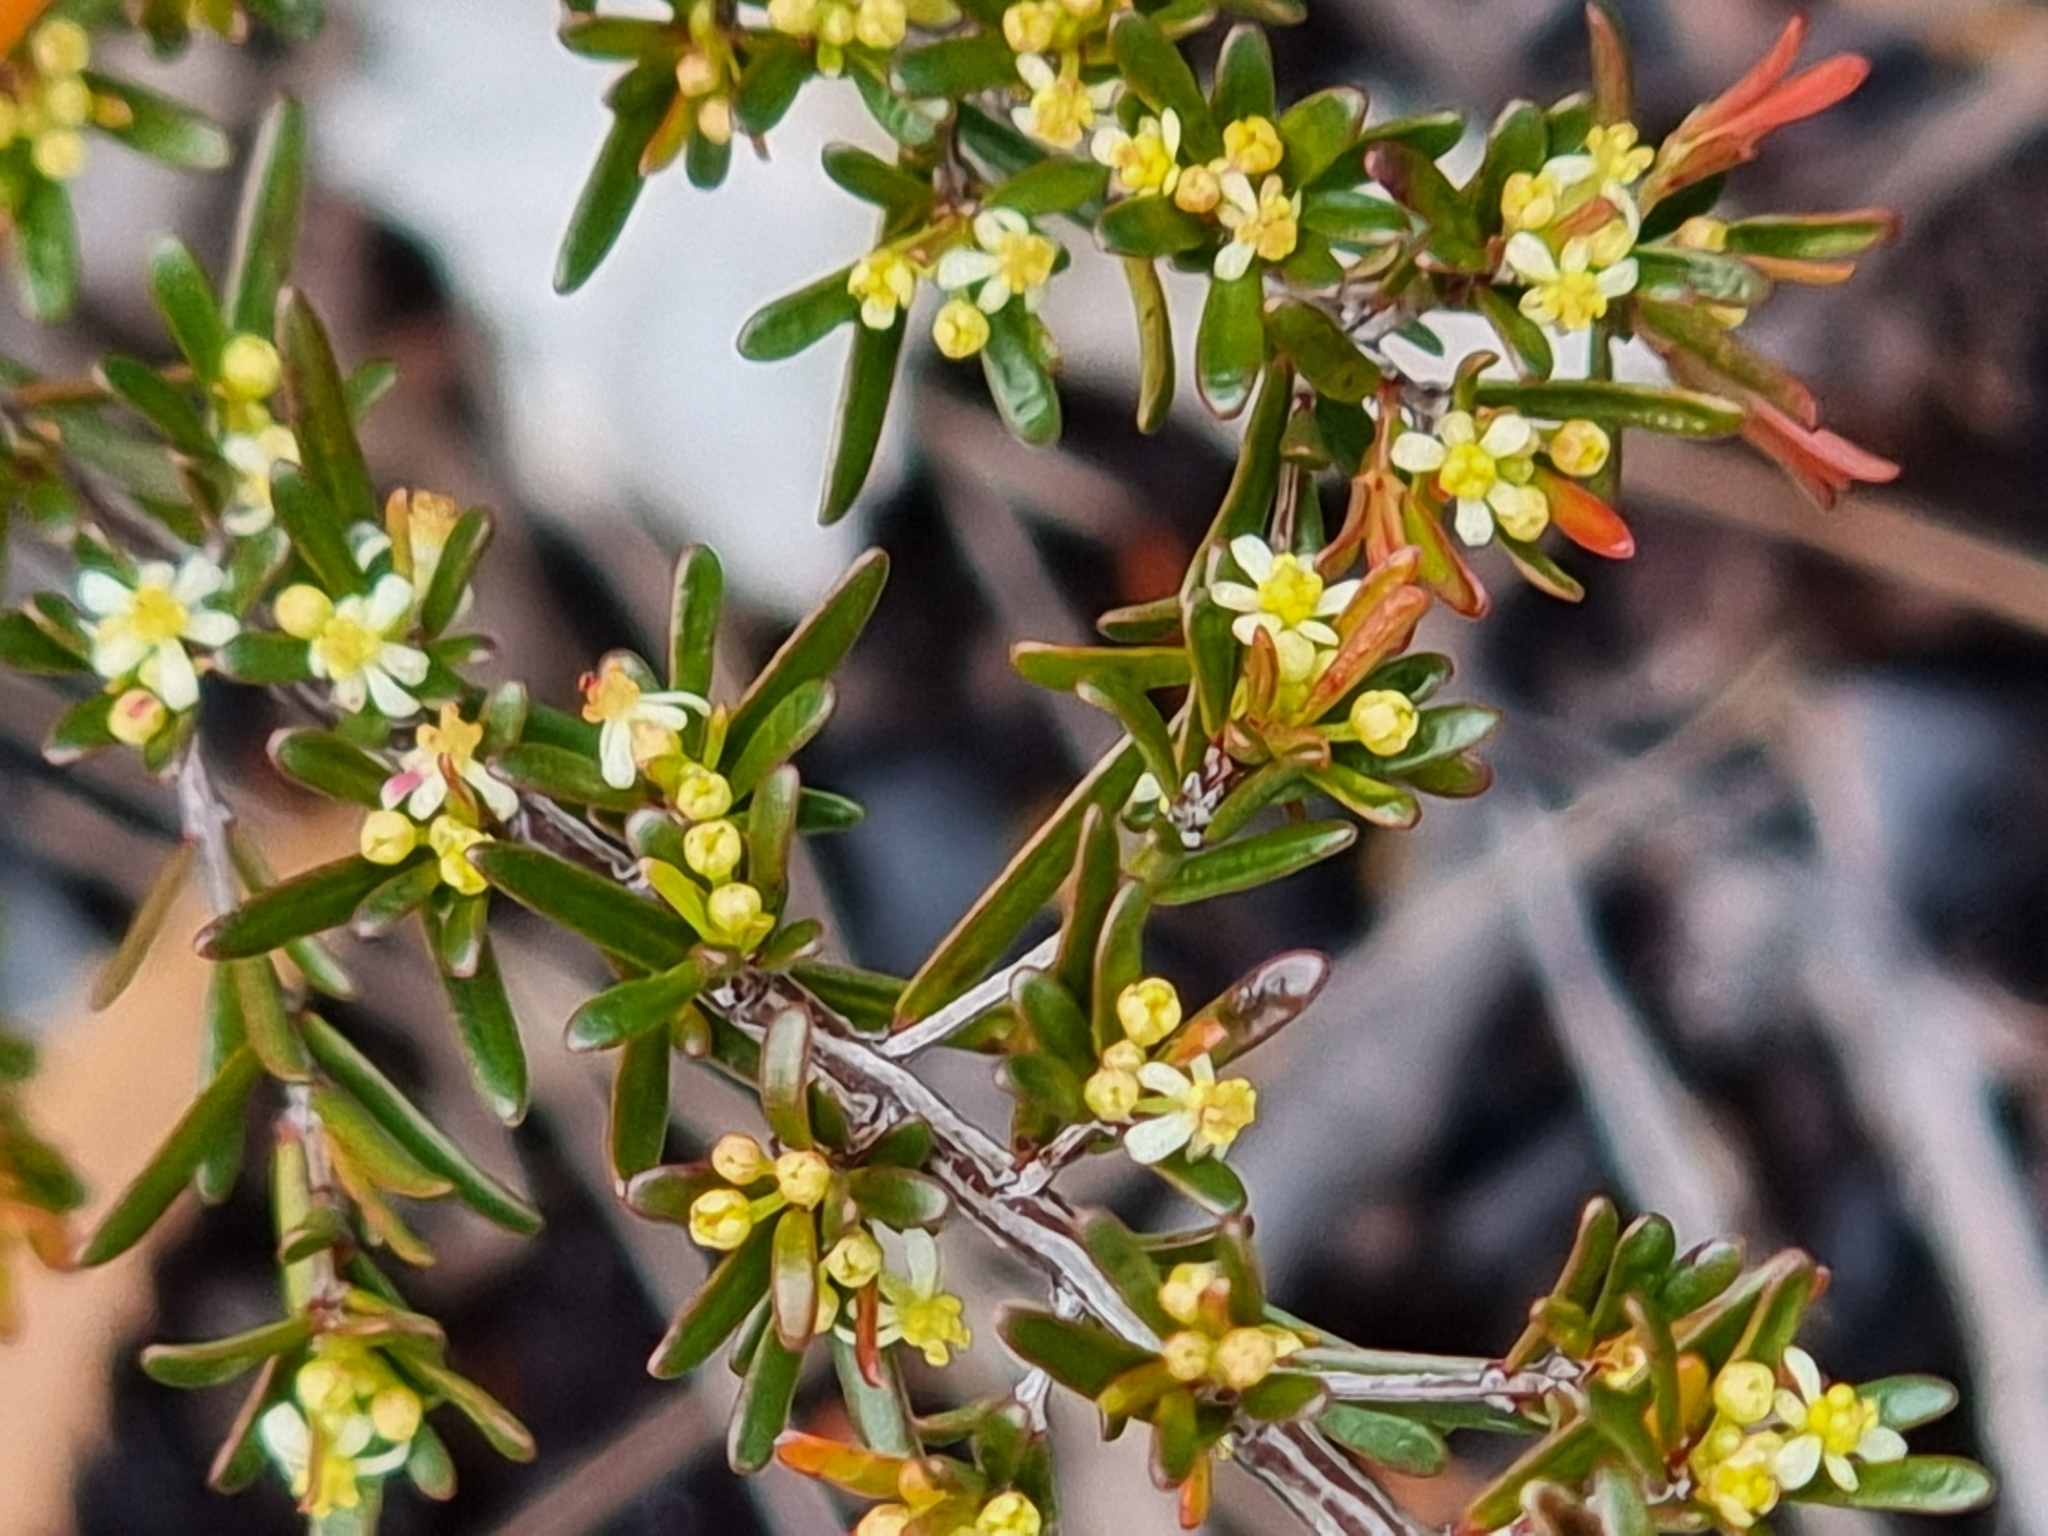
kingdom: Plantae
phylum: Tracheophyta
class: Magnoliopsida
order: Malpighiales
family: Picrodendraceae
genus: Pseudanthus
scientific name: Pseudanthus orientalis
